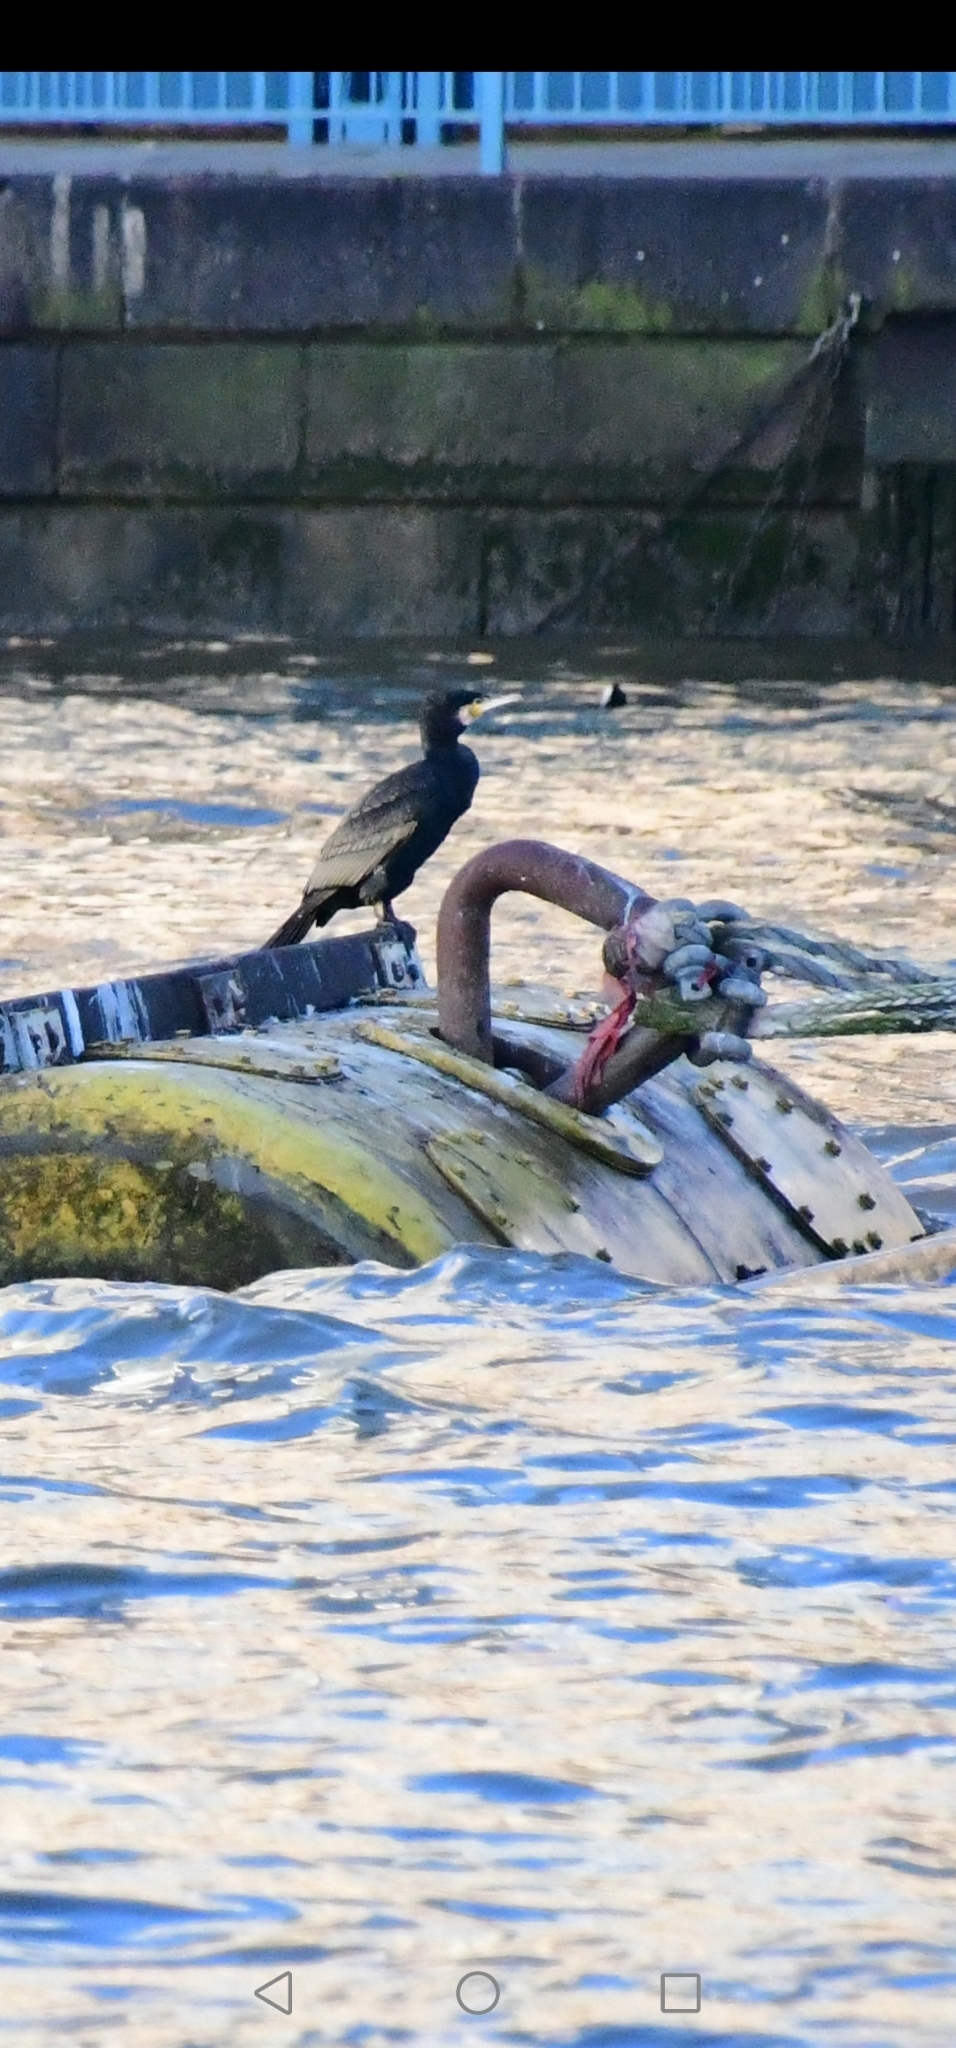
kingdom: Animalia
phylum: Chordata
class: Aves
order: Suliformes
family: Phalacrocoracidae
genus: Phalacrocorax
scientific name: Phalacrocorax carbo
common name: Great cormorant
